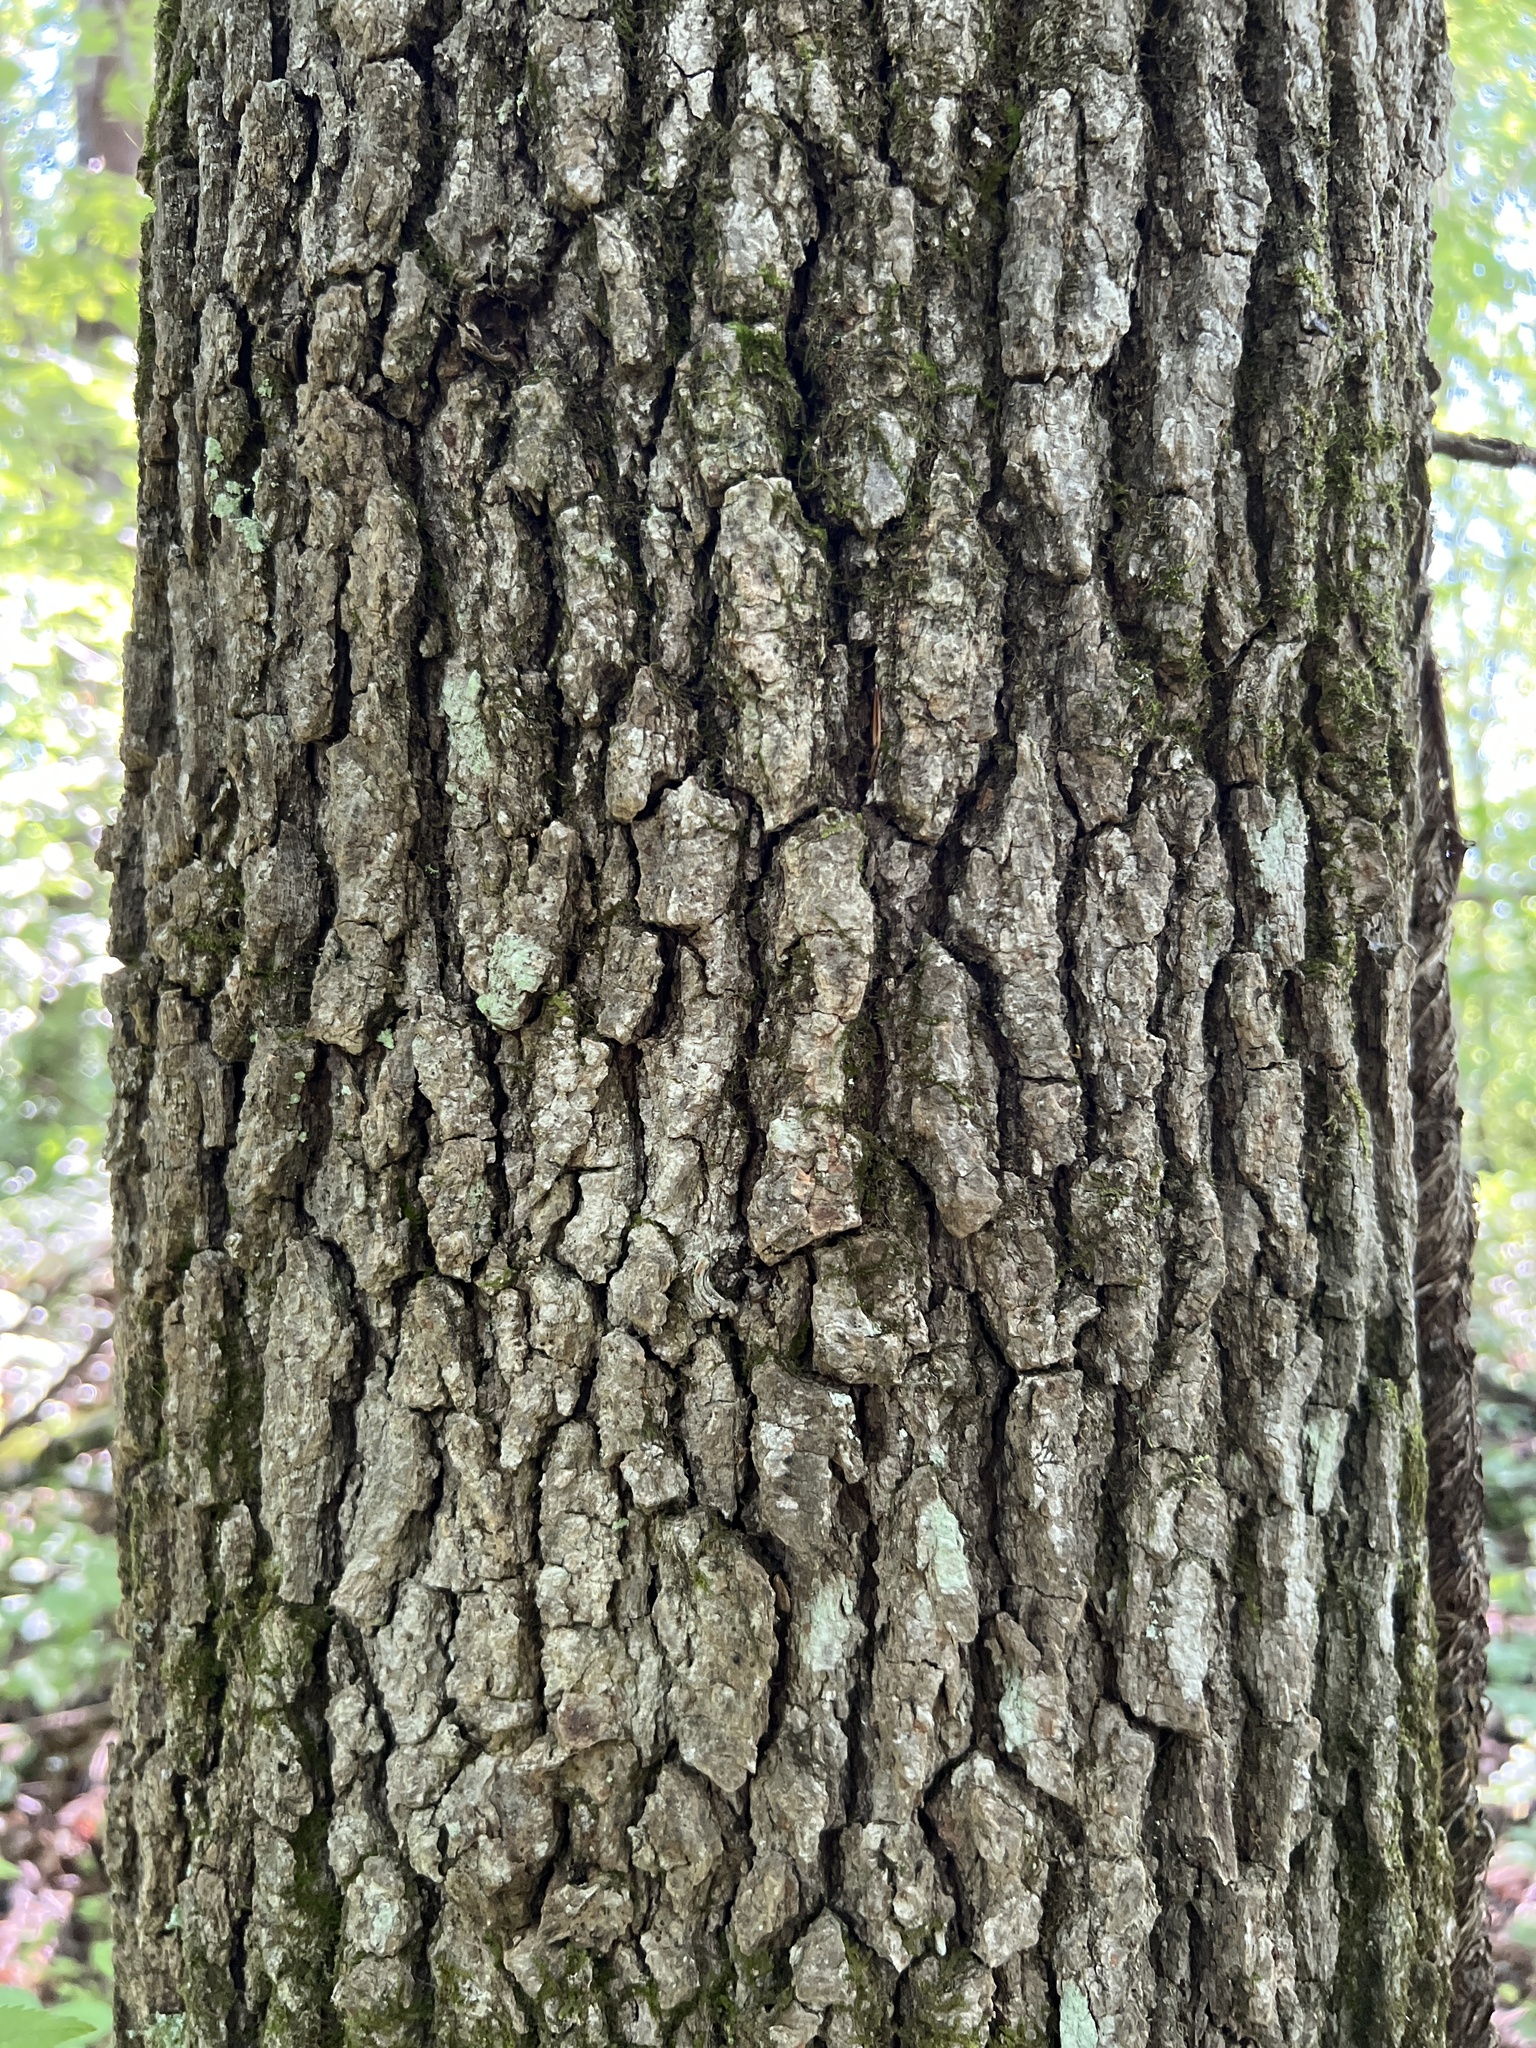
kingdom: Plantae
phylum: Tracheophyta
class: Magnoliopsida
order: Cornales
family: Nyssaceae
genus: Nyssa
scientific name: Nyssa sylvatica
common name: Black tupelo
